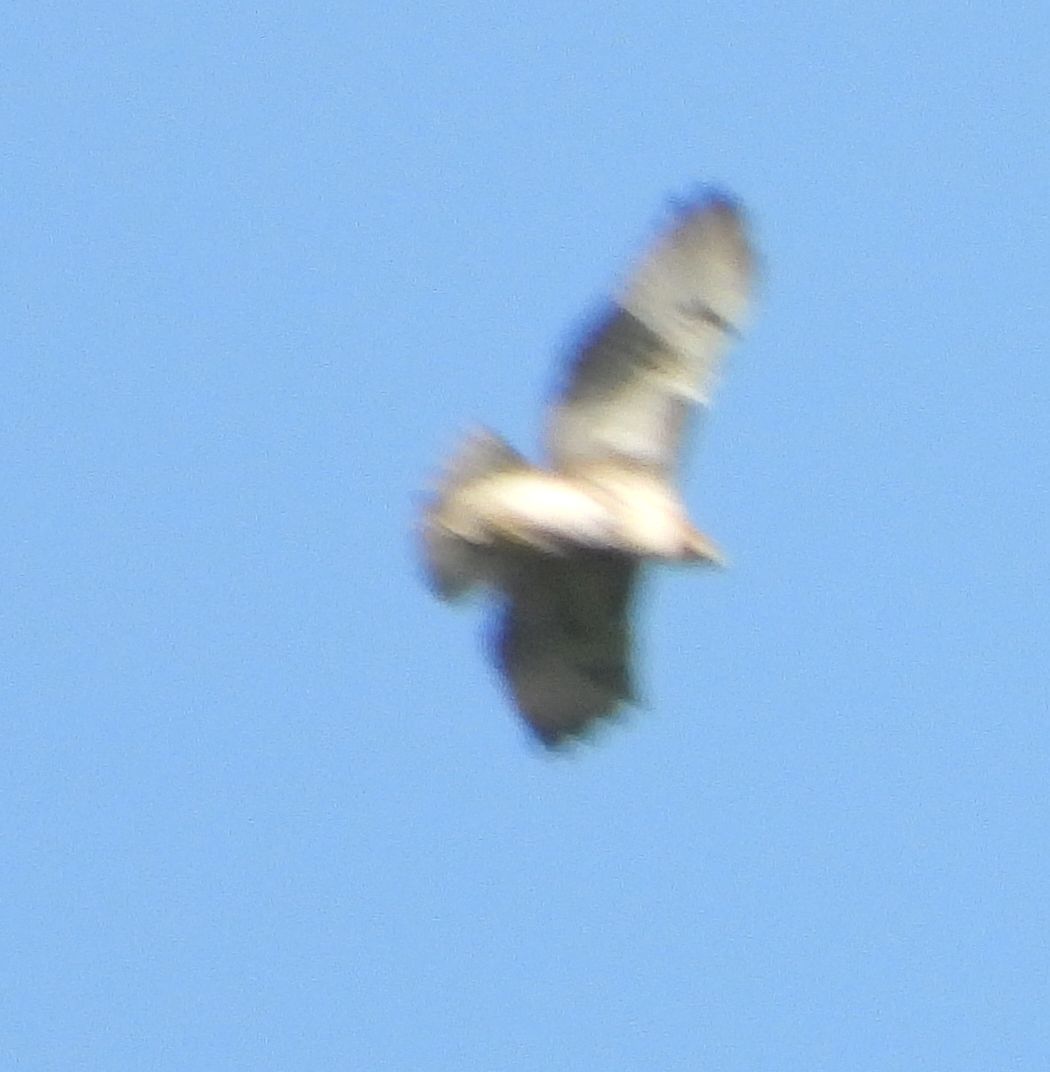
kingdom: Animalia
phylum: Chordata
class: Aves
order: Accipitriformes
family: Accipitridae
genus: Buteo
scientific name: Buteo jamaicensis
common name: Red-tailed hawk
